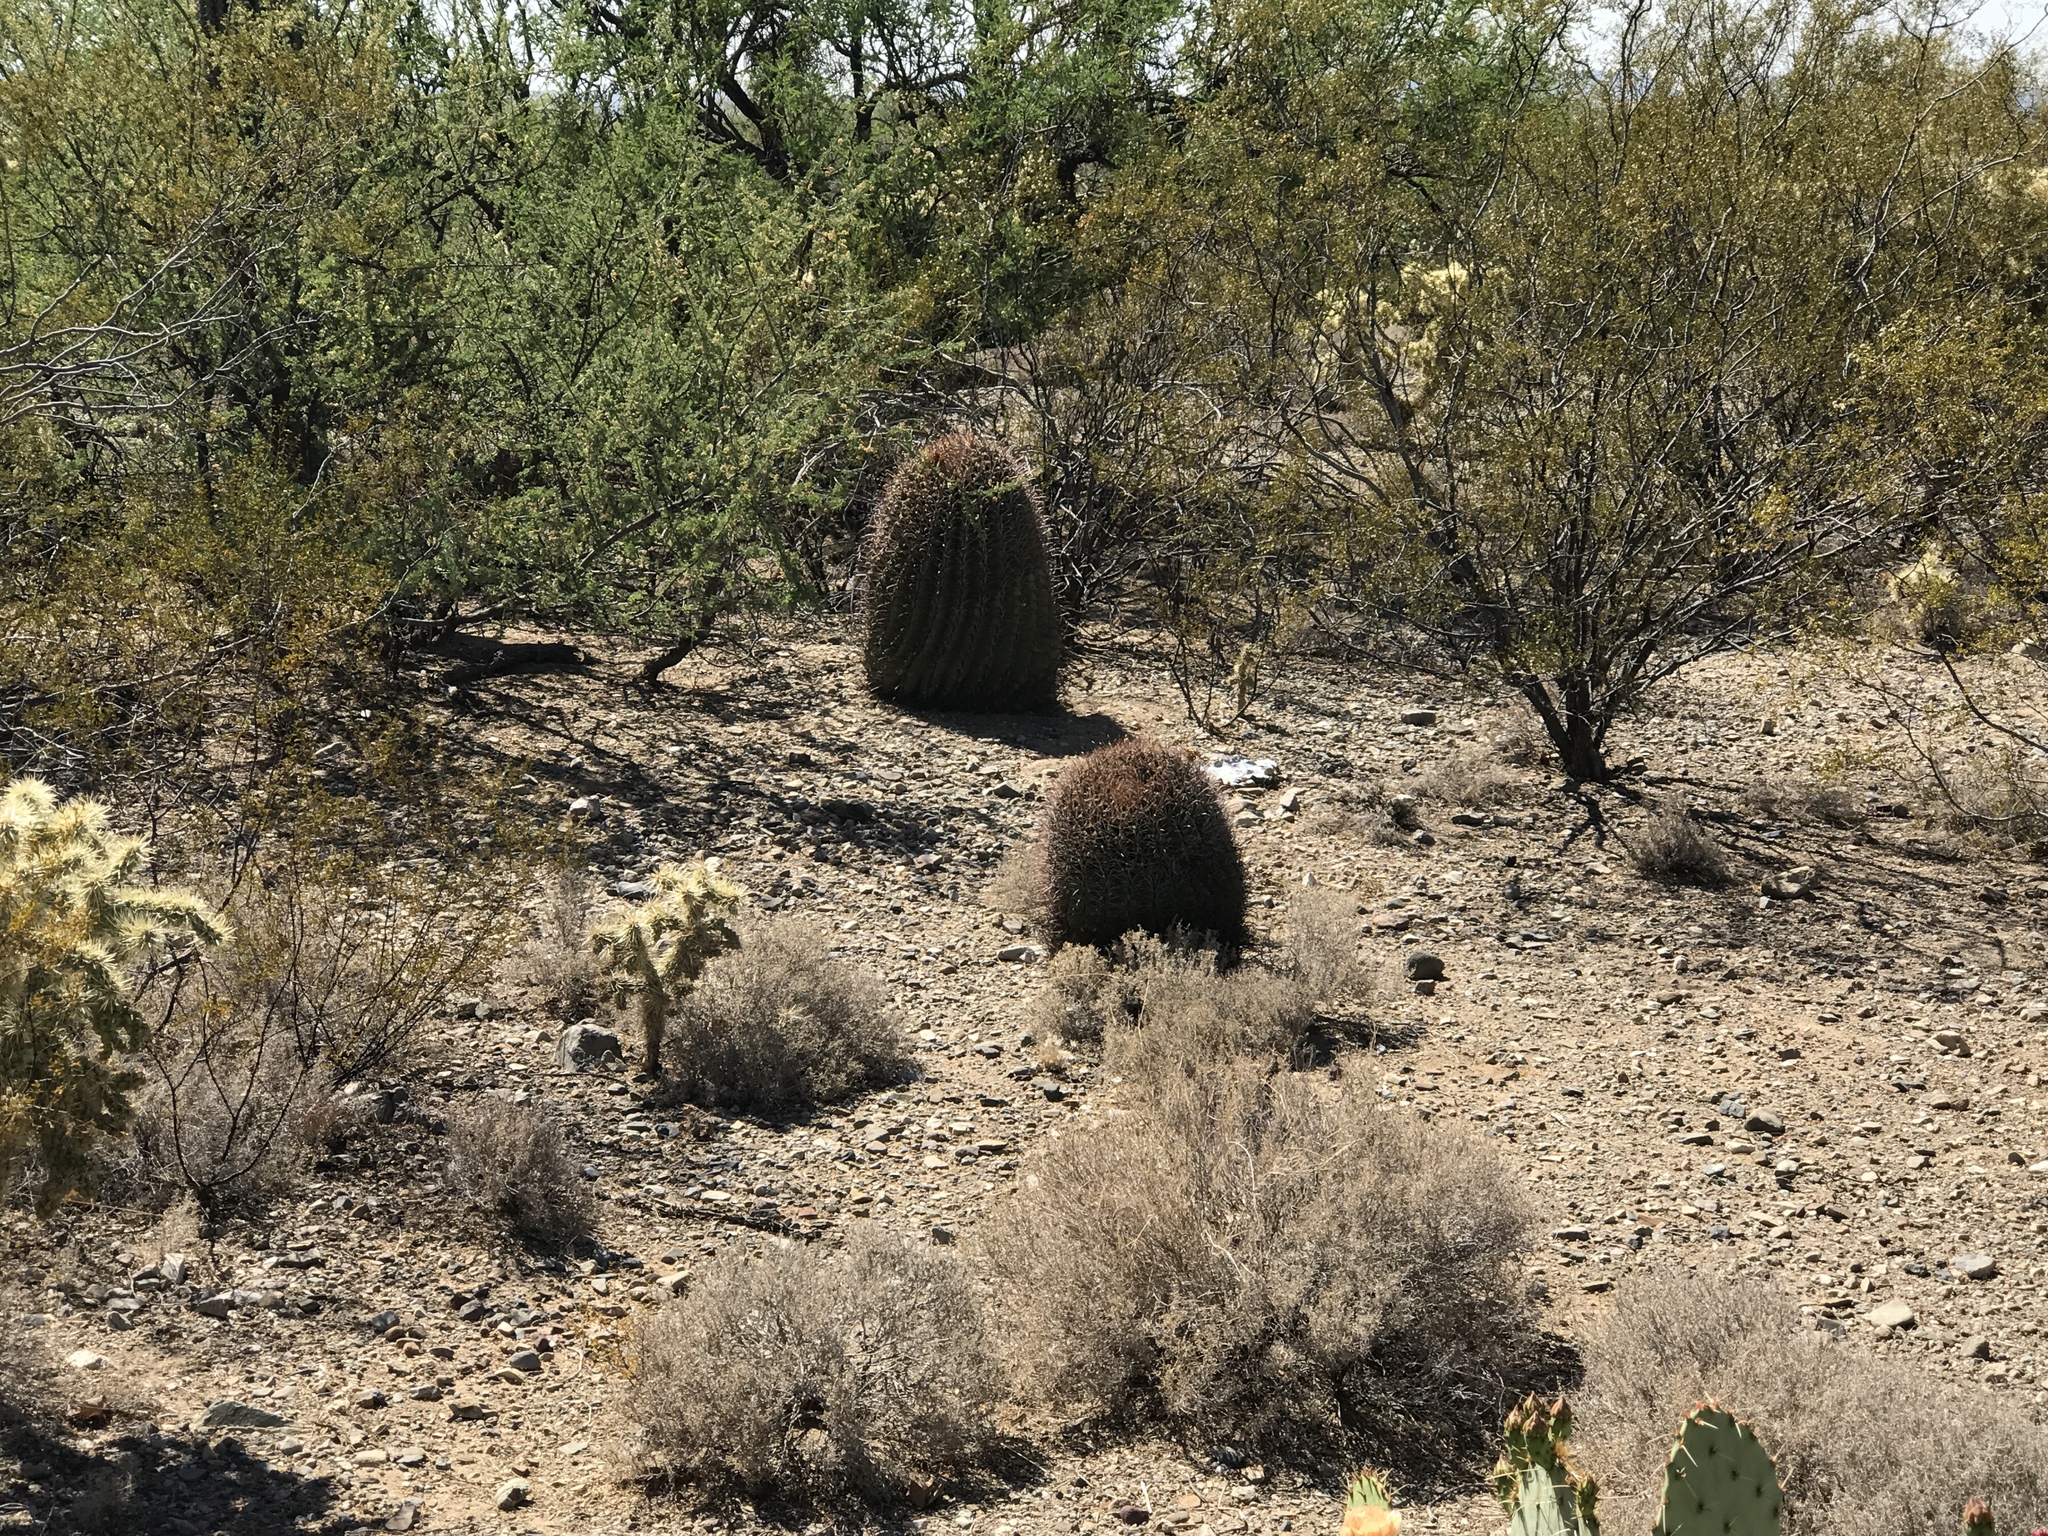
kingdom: Plantae
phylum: Tracheophyta
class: Magnoliopsida
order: Caryophyllales
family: Cactaceae
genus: Ferocactus
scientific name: Ferocactus wislizeni
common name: Candy barrel cactus
